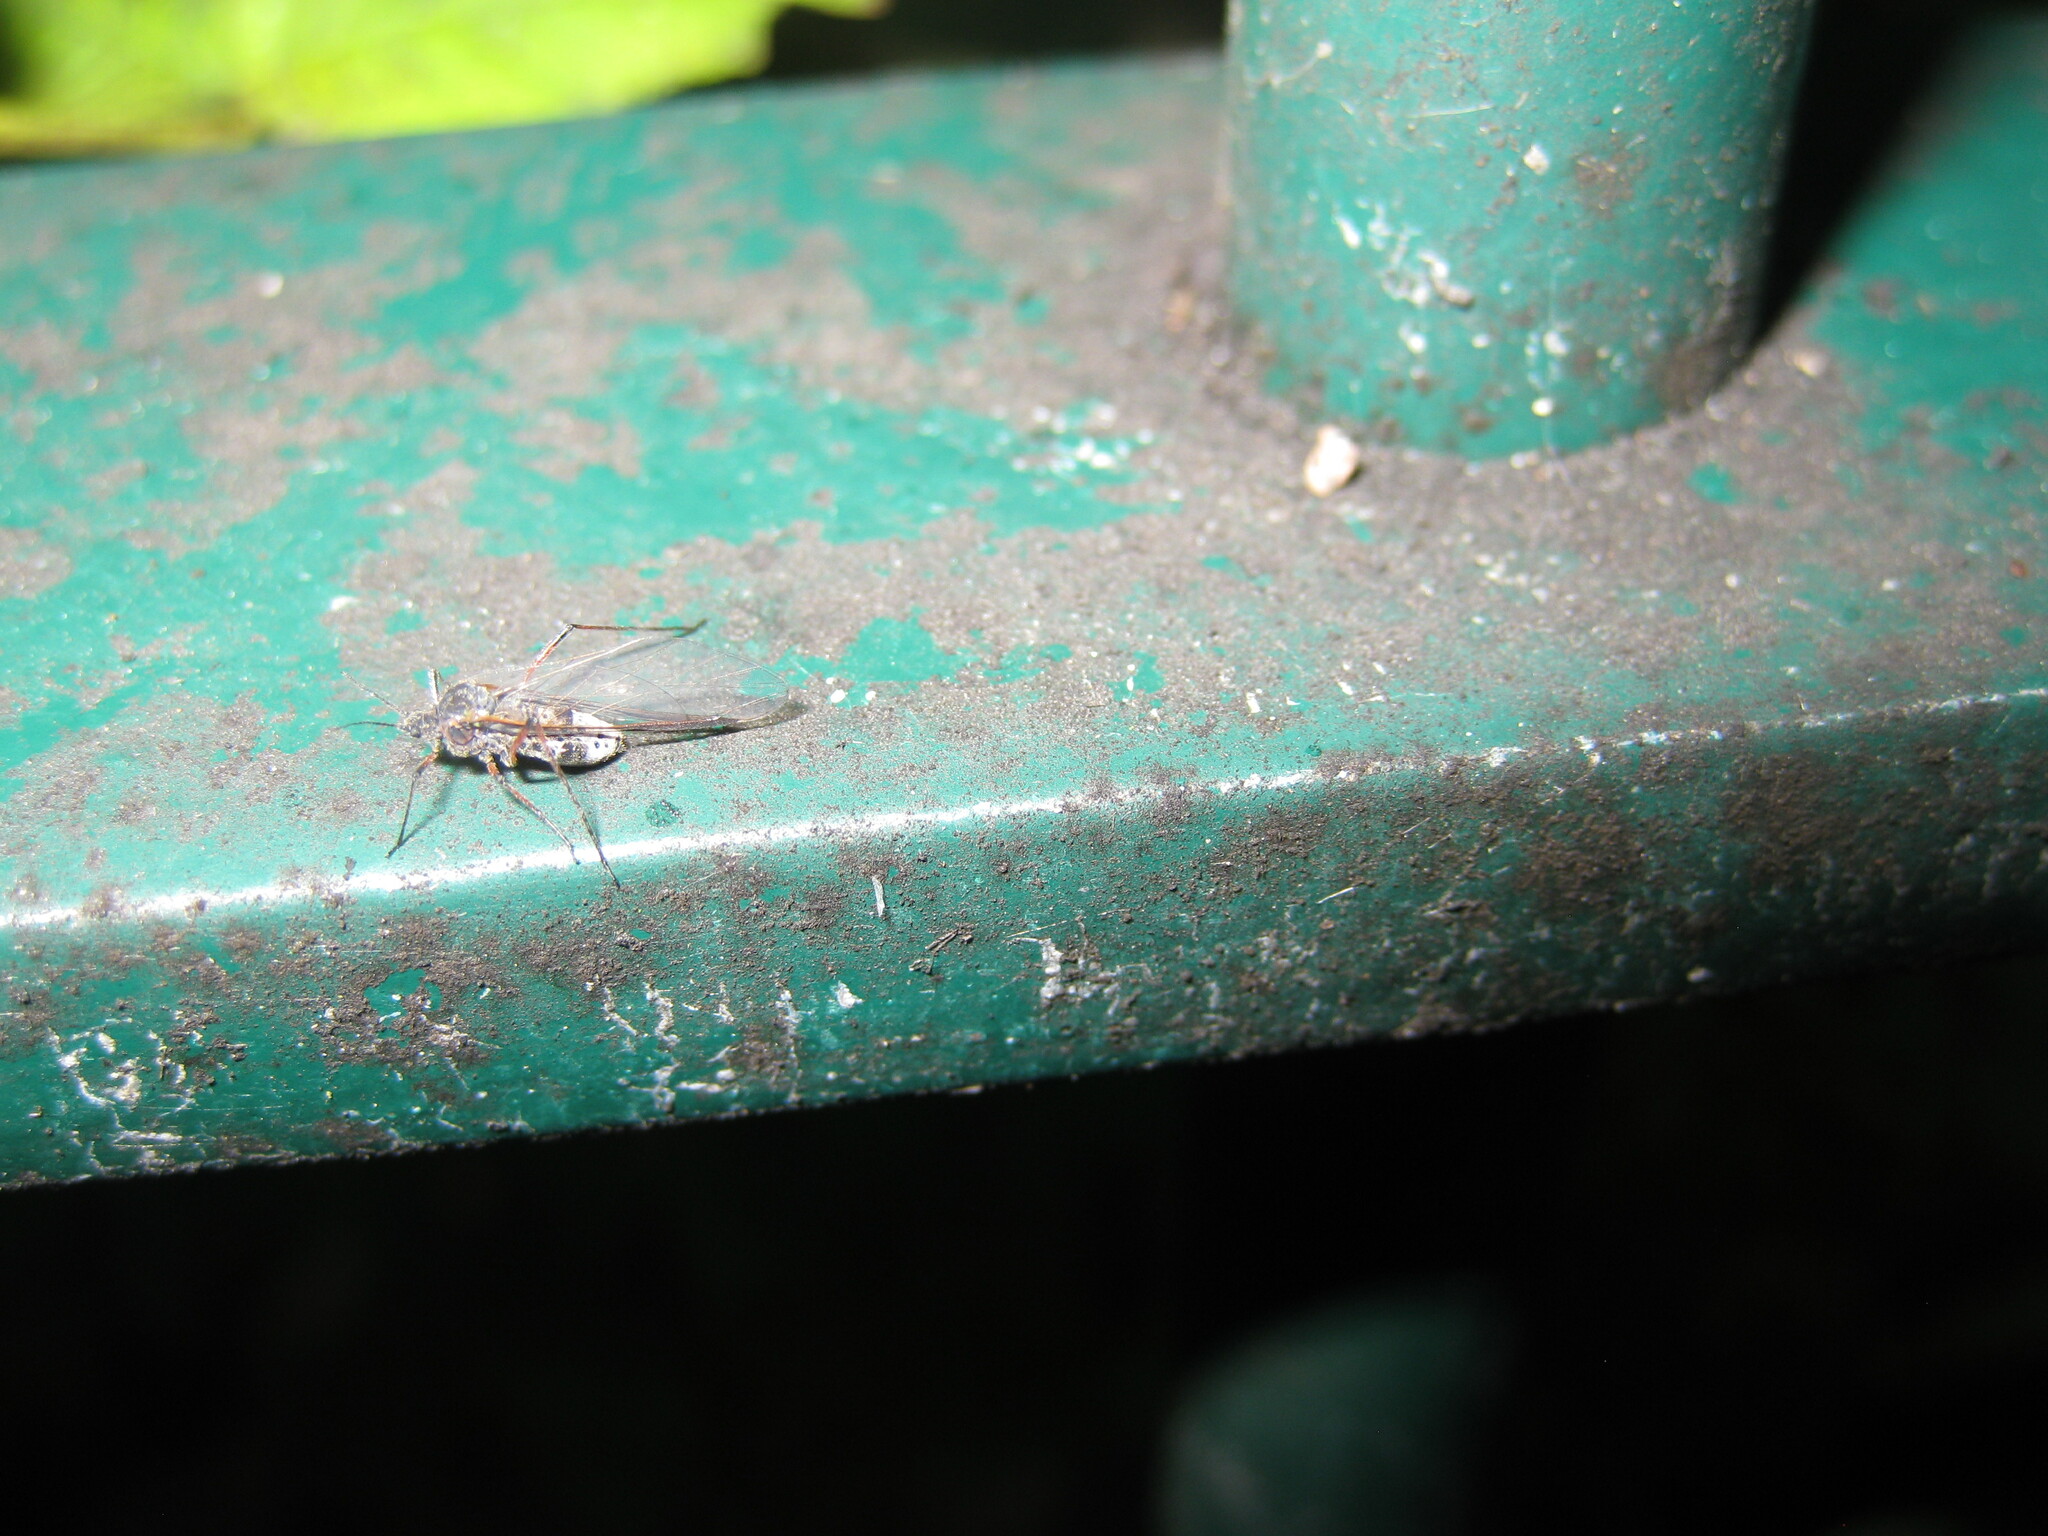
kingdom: Animalia
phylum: Arthropoda
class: Insecta
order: Hemiptera
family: Aphididae
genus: Tuberolachnus
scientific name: Tuberolachnus salignus
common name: Giant willow aphid
